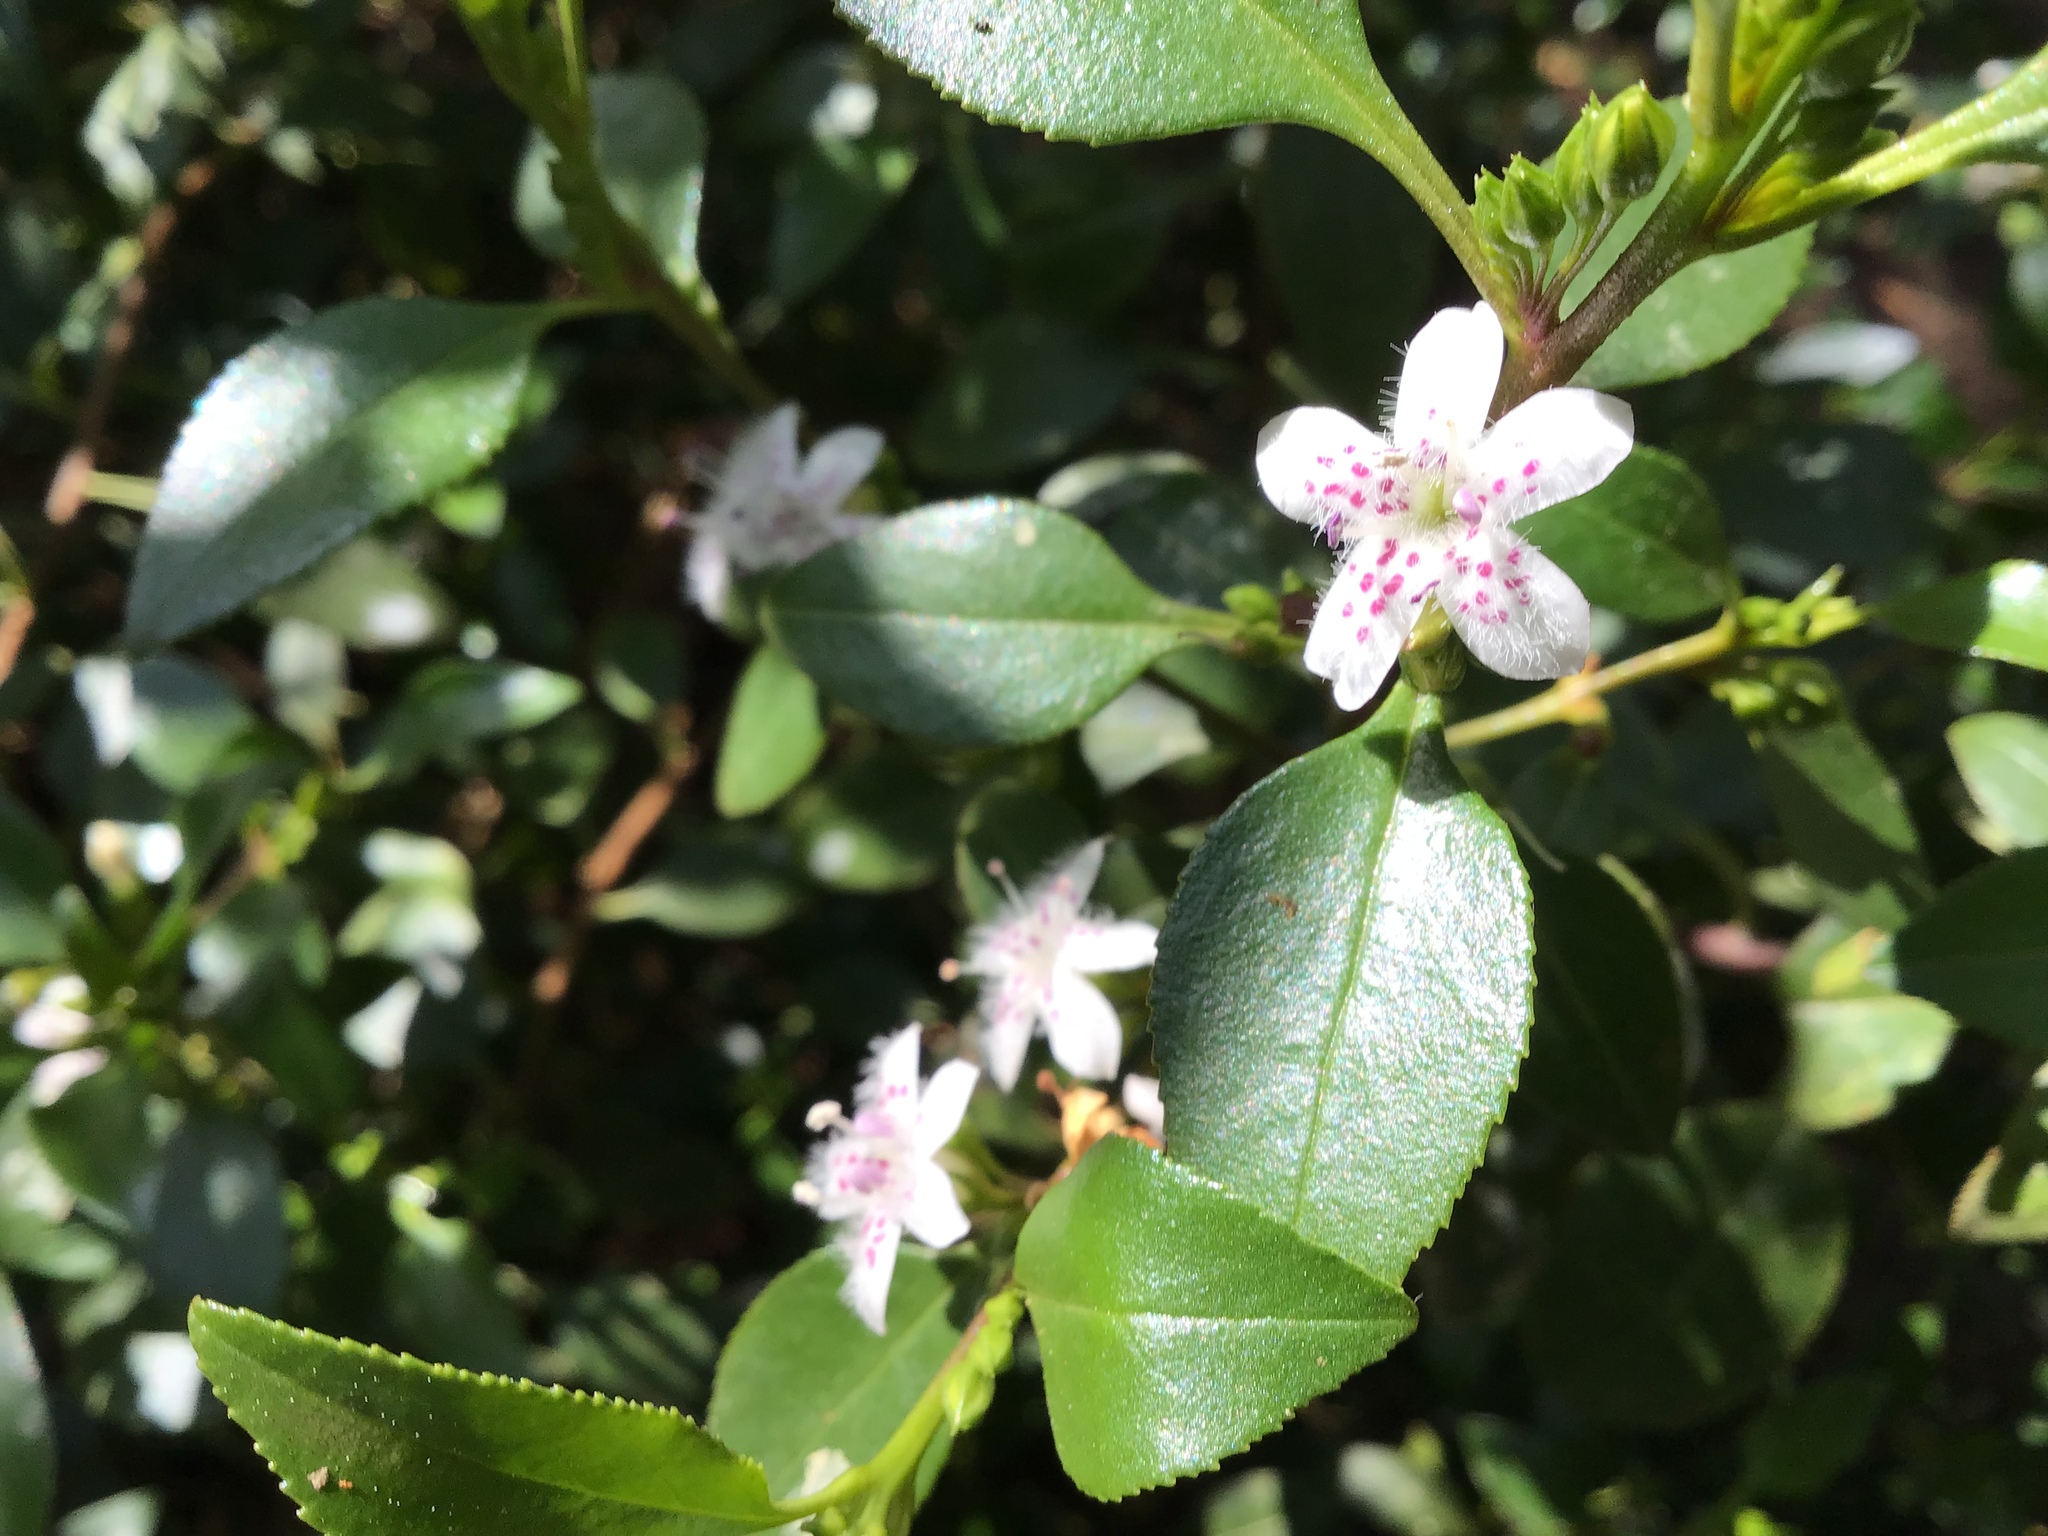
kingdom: Plantae
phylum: Tracheophyta
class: Magnoliopsida
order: Lamiales
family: Scrophulariaceae
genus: Myoporum
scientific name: Myoporum petiolatum
